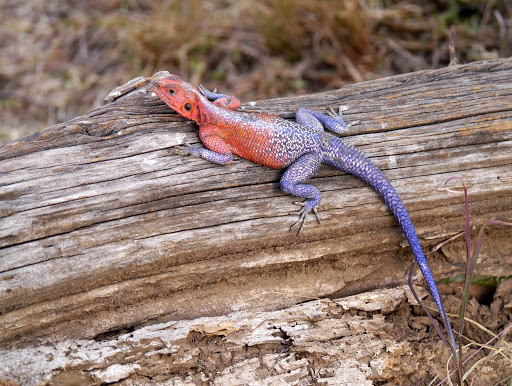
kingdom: Animalia
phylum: Chordata
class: Squamata
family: Agamidae
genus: Agama
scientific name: Agama mwanzae
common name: Mwanza flat-headed agama
